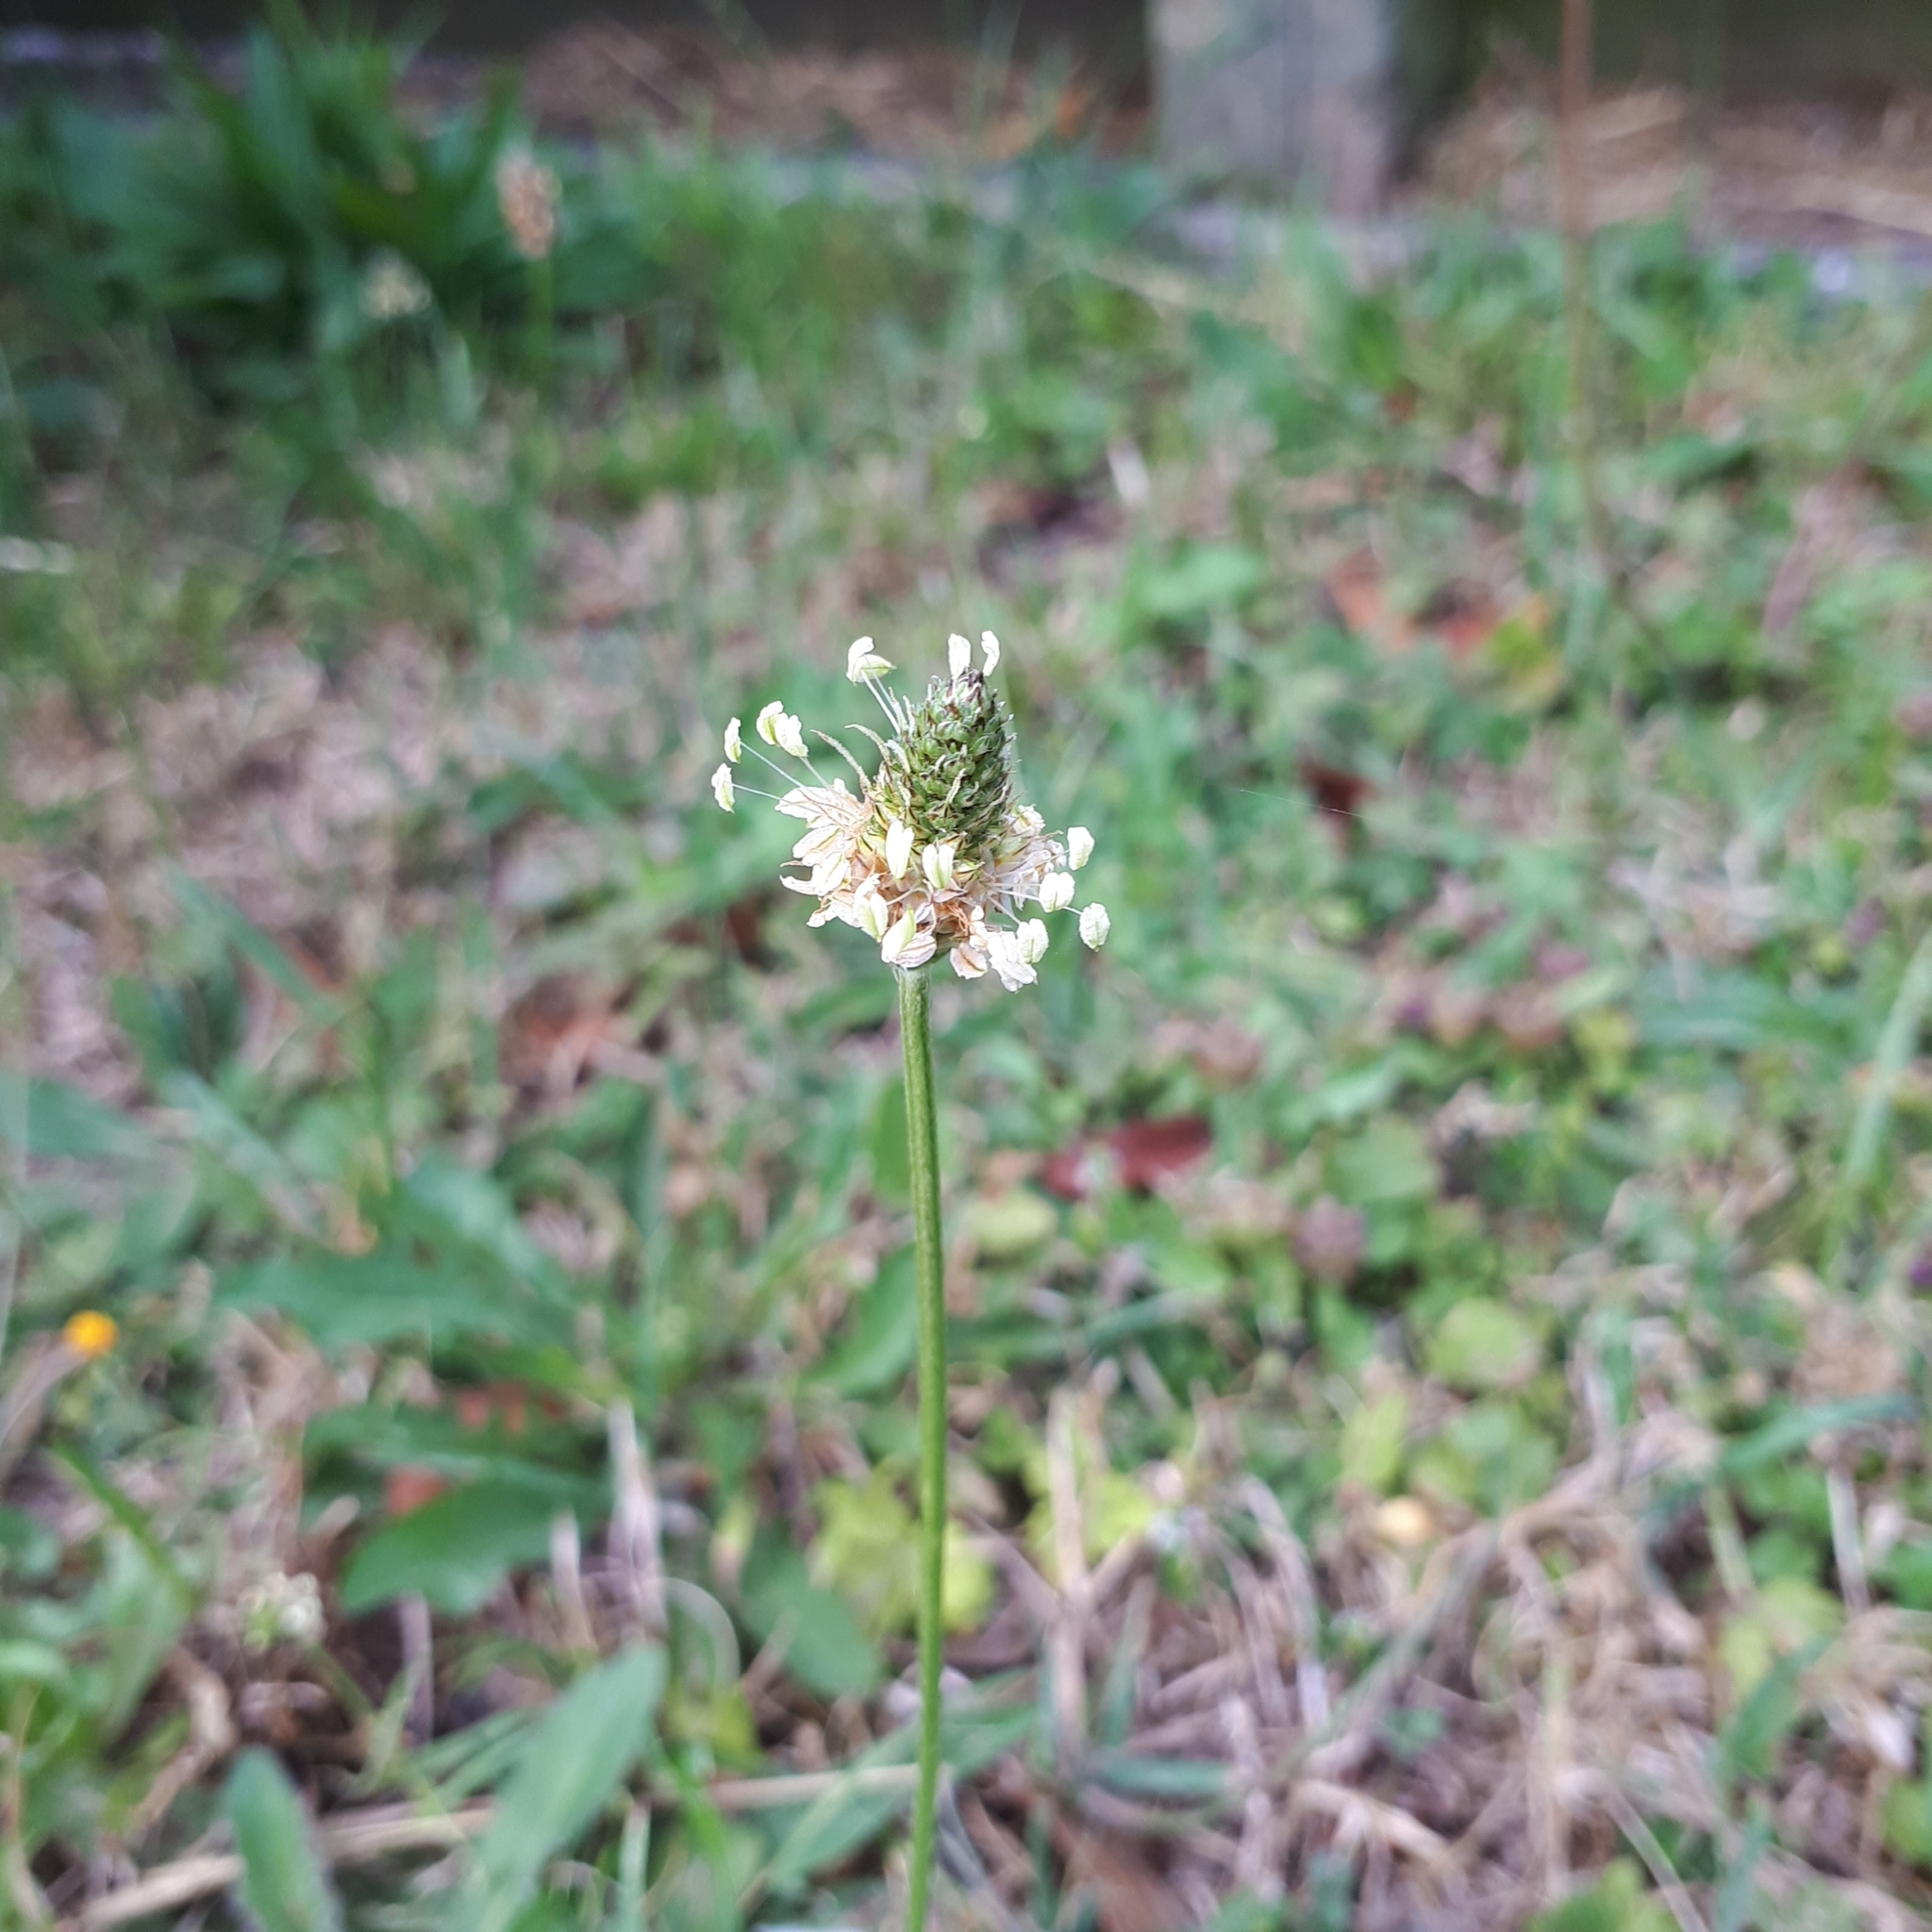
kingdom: Plantae
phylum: Tracheophyta
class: Magnoliopsida
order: Lamiales
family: Plantaginaceae
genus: Plantago
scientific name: Plantago lanceolata
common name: Ribwort plantain
